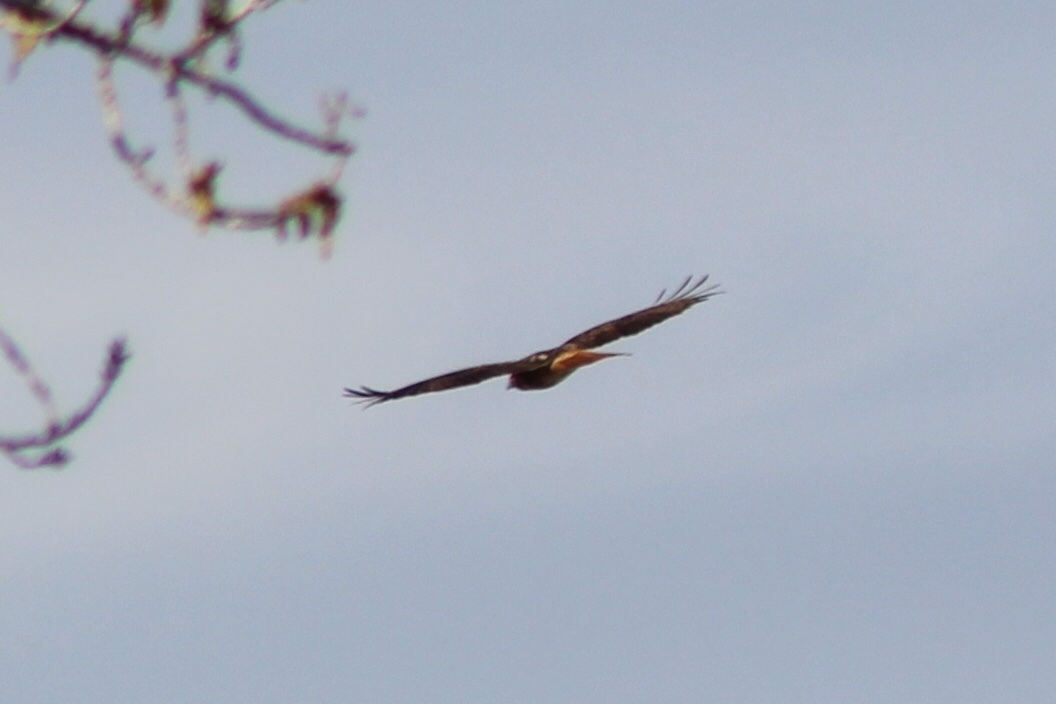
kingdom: Animalia
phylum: Chordata
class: Aves
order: Accipitriformes
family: Accipitridae
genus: Buteo
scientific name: Buteo jamaicensis
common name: Red-tailed hawk
